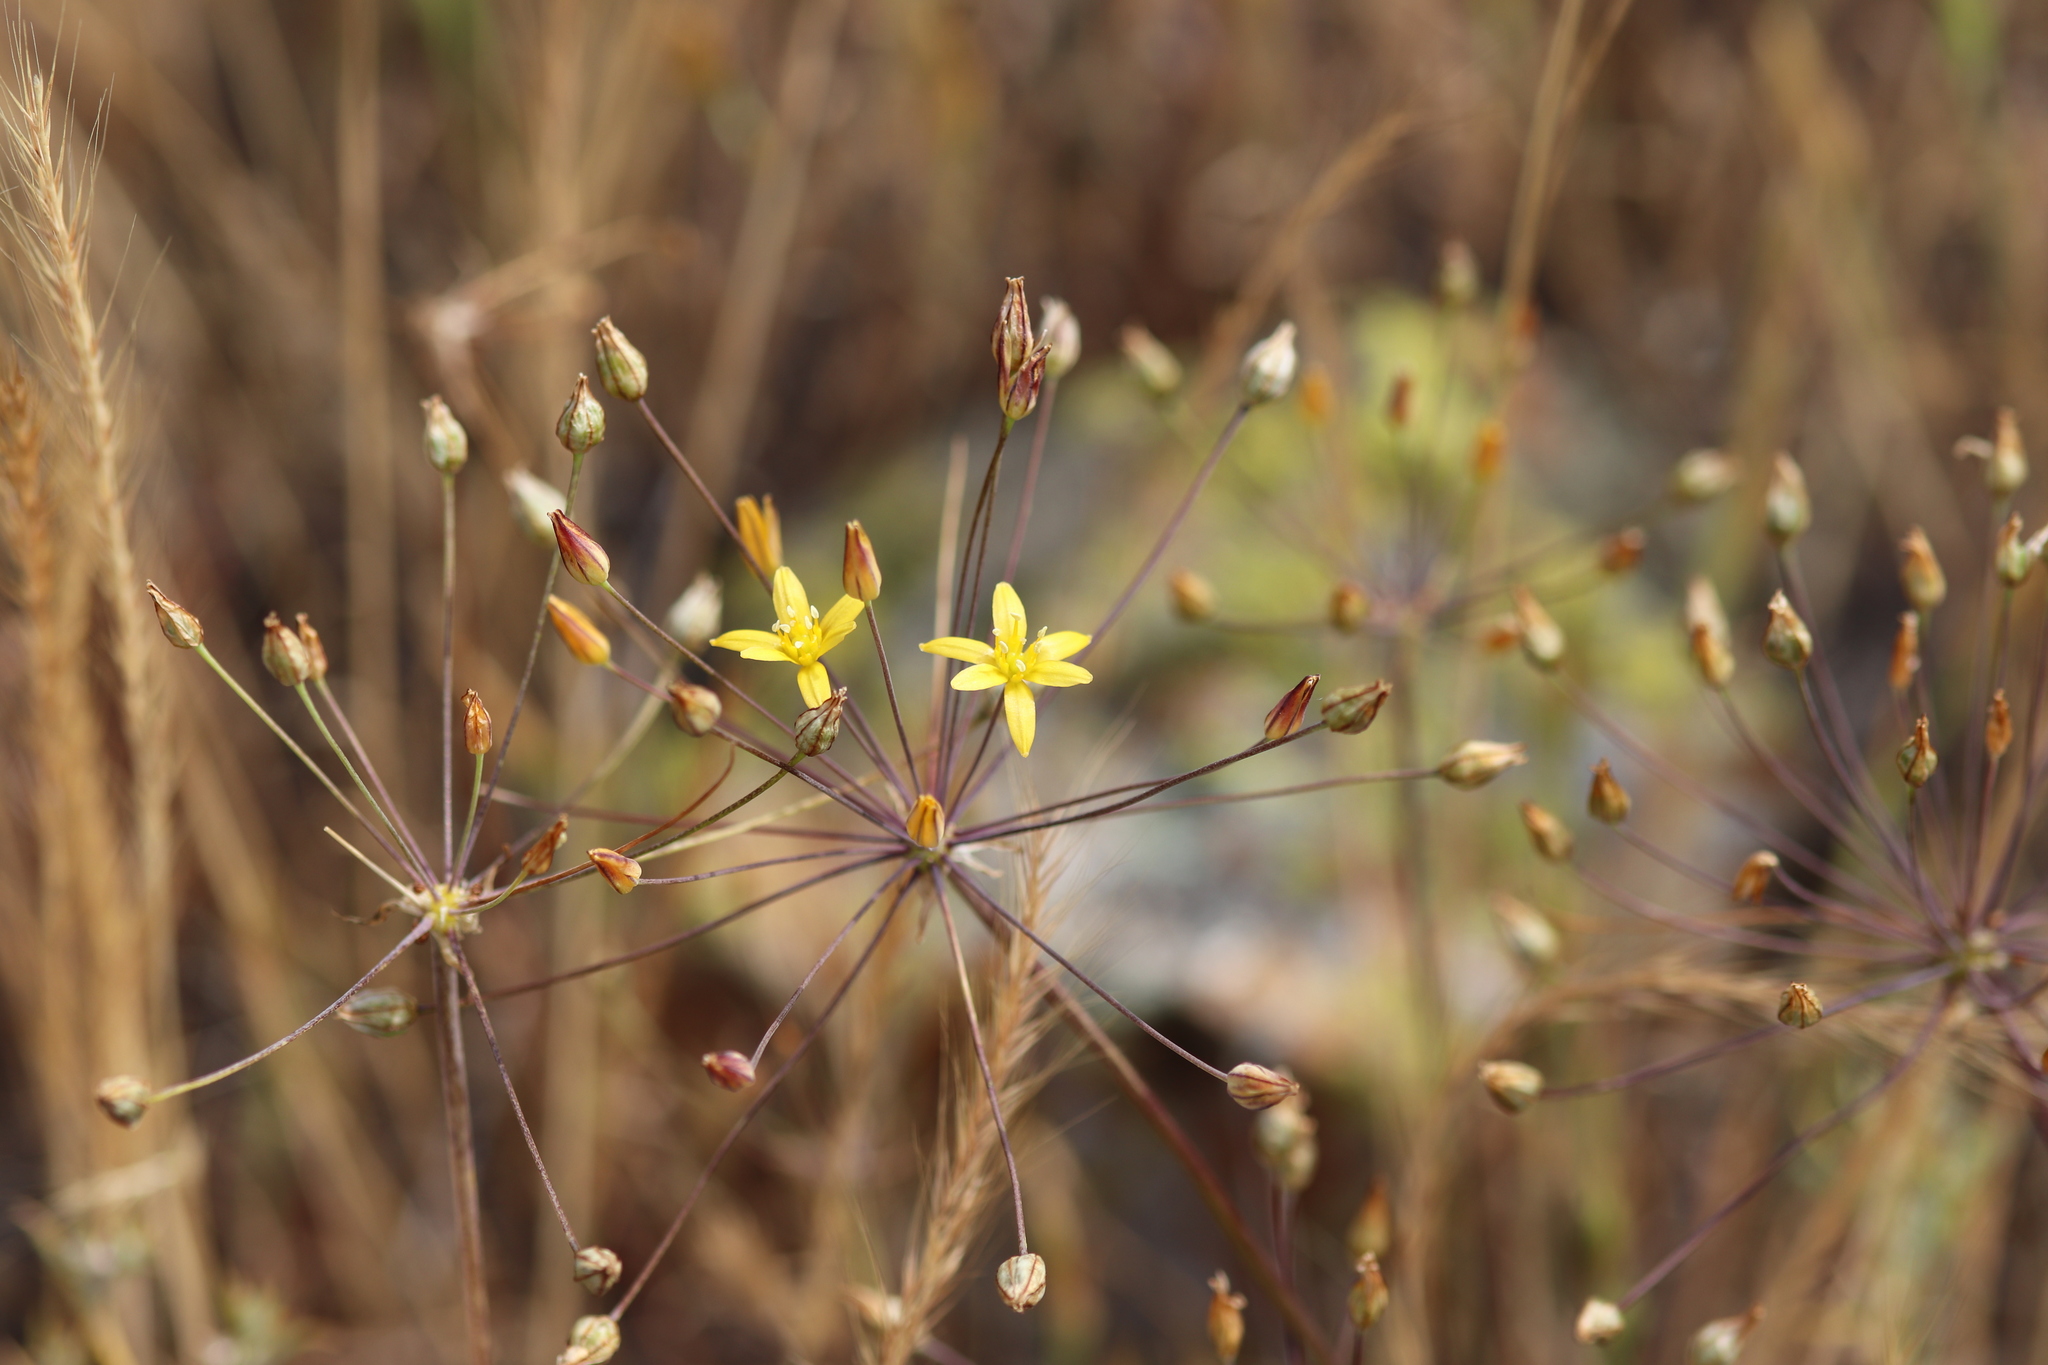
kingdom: Plantae
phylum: Tracheophyta
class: Liliopsida
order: Asparagales
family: Asparagaceae
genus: Bloomeria
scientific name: Bloomeria clevelandii
